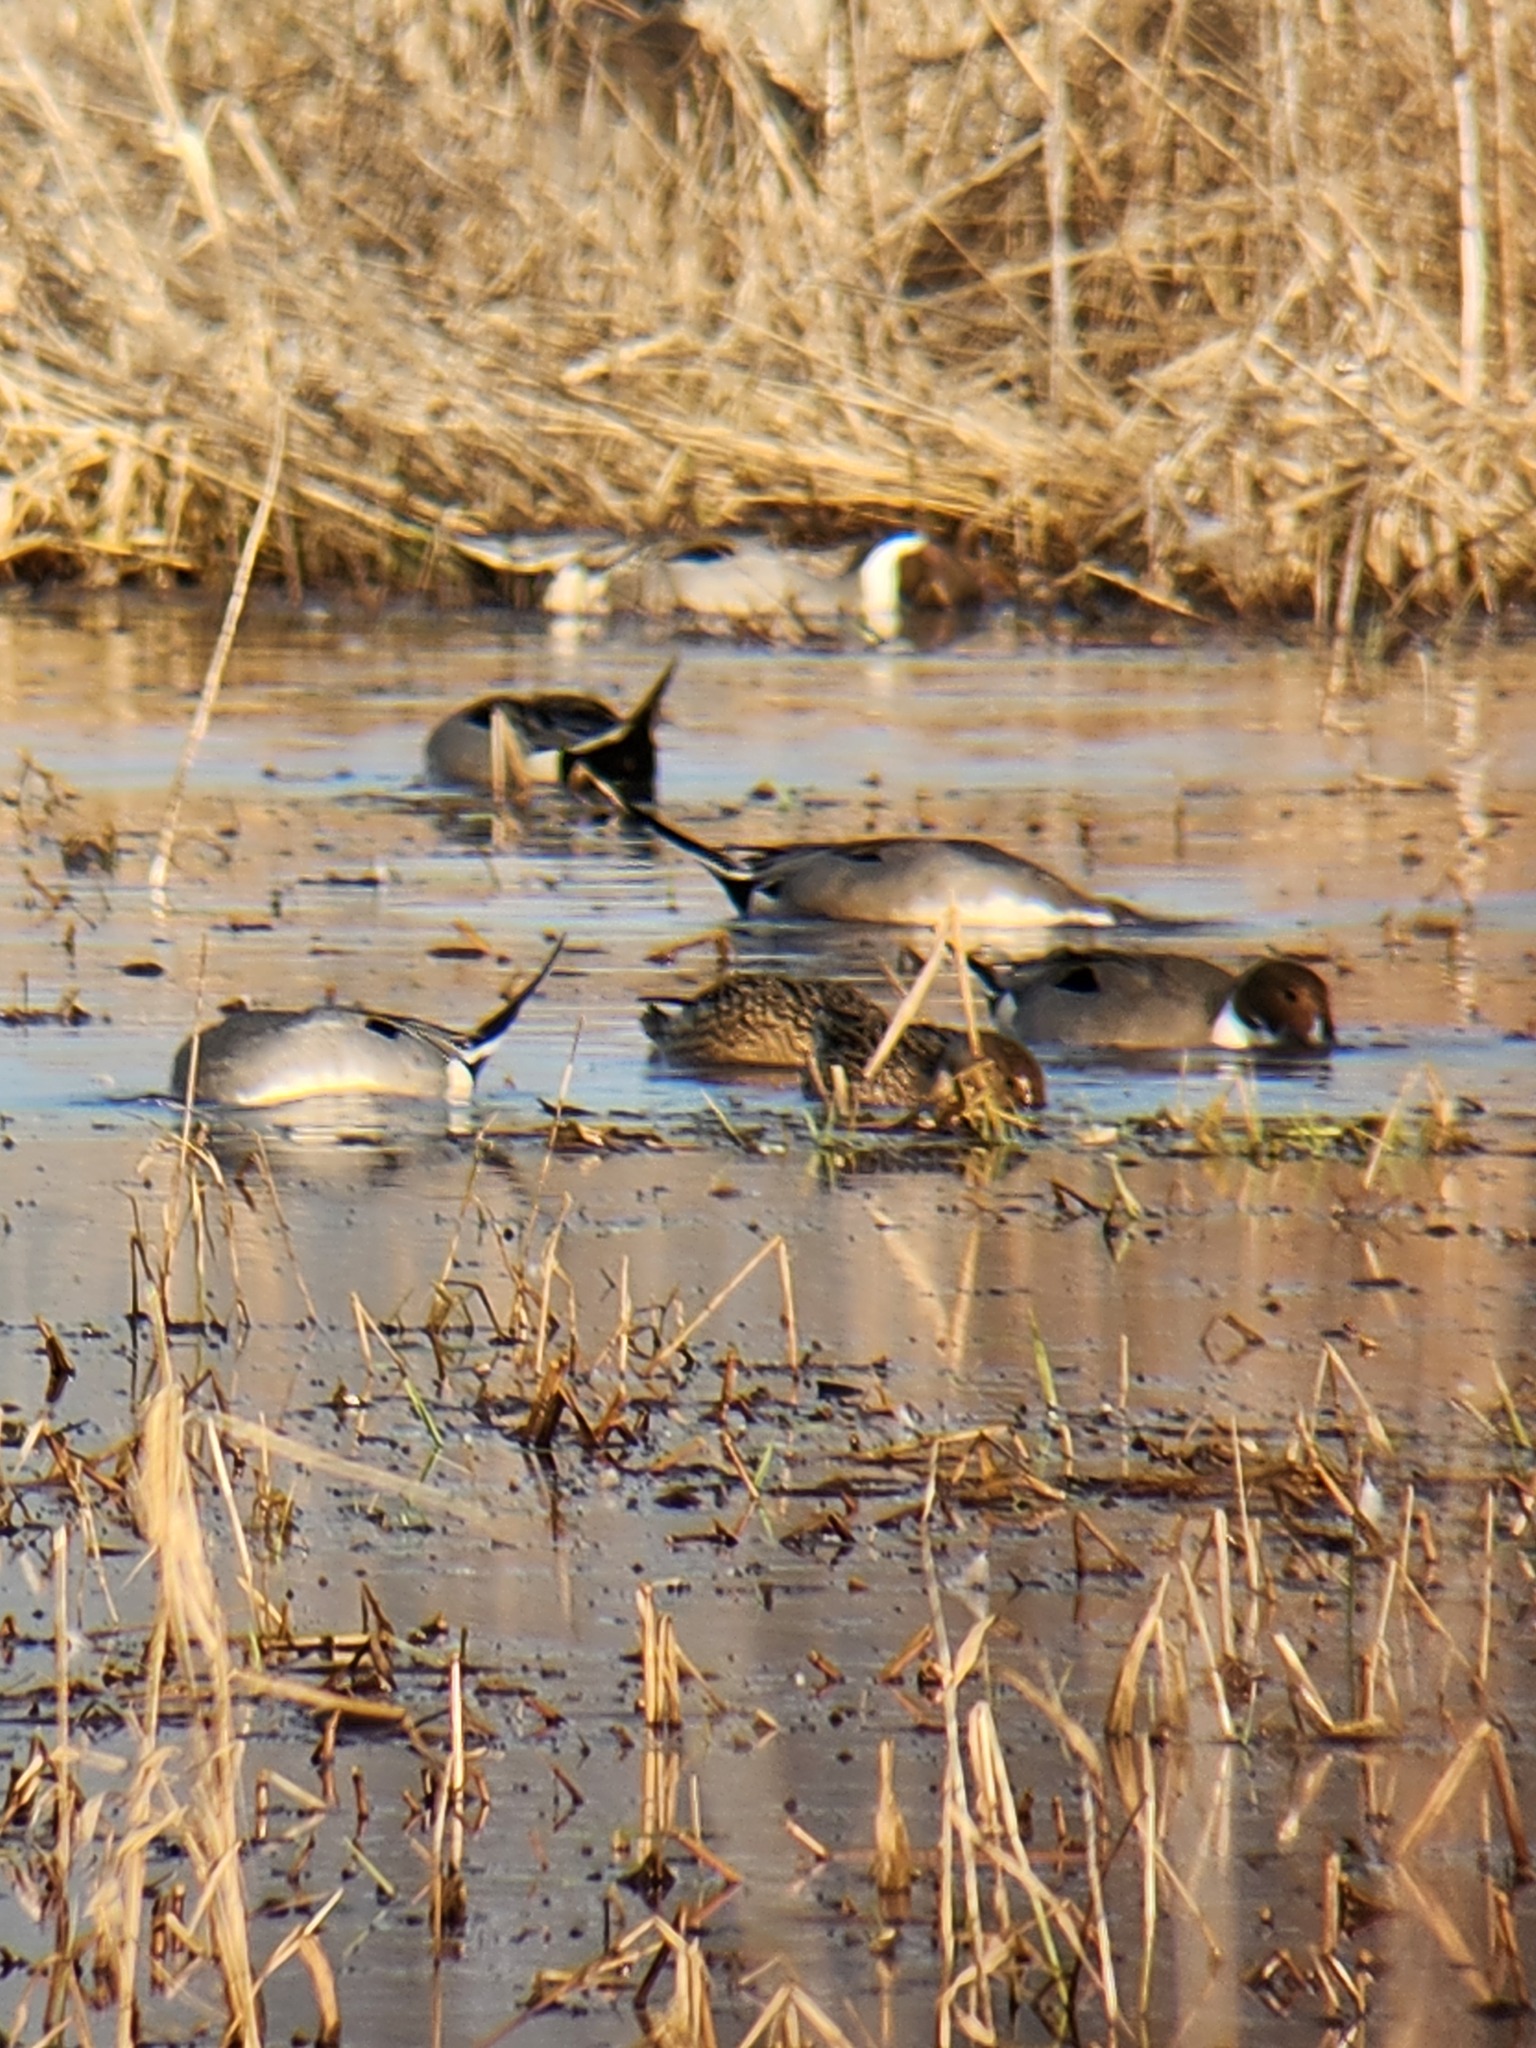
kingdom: Animalia
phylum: Chordata
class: Aves
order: Anseriformes
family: Anatidae
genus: Anas
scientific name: Anas acuta
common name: Northern pintail
